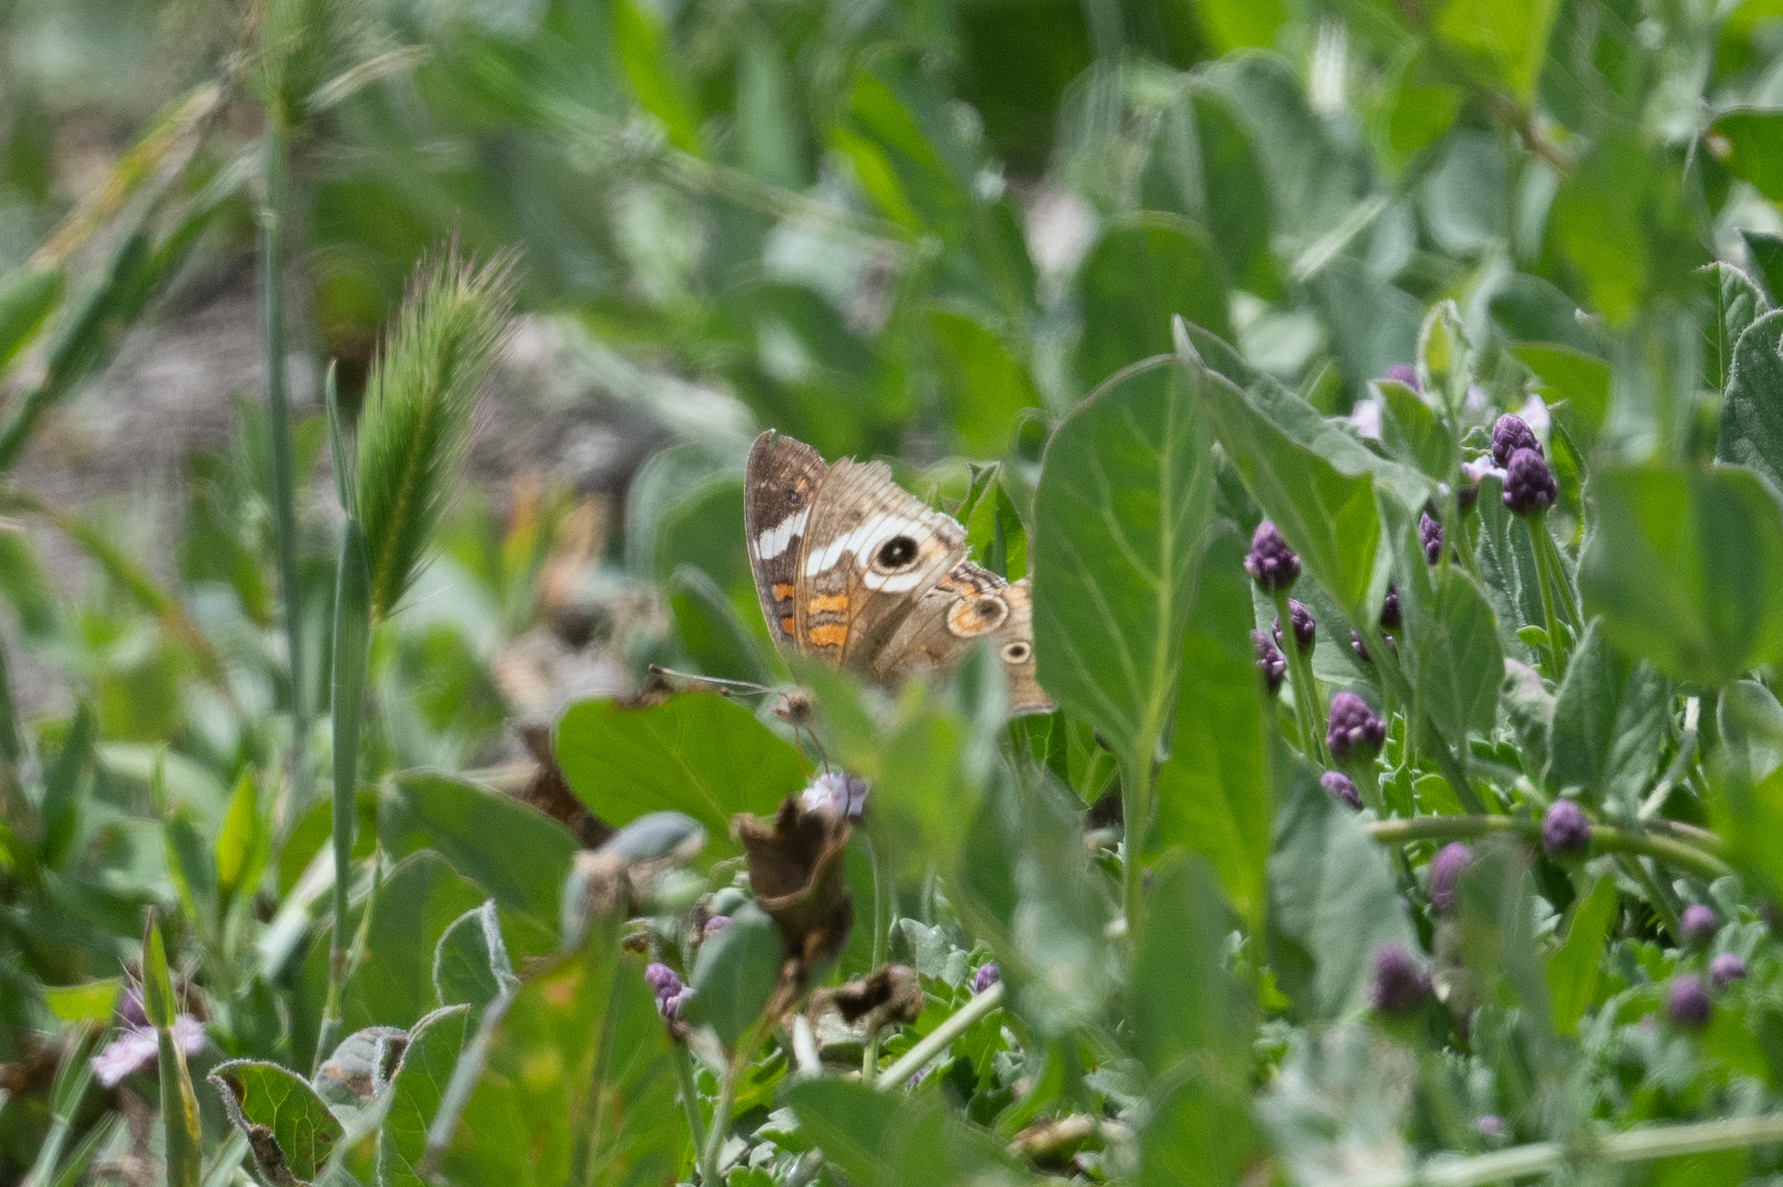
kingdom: Animalia
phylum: Arthropoda
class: Insecta
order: Lepidoptera
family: Nymphalidae
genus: Junonia
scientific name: Junonia grisea
